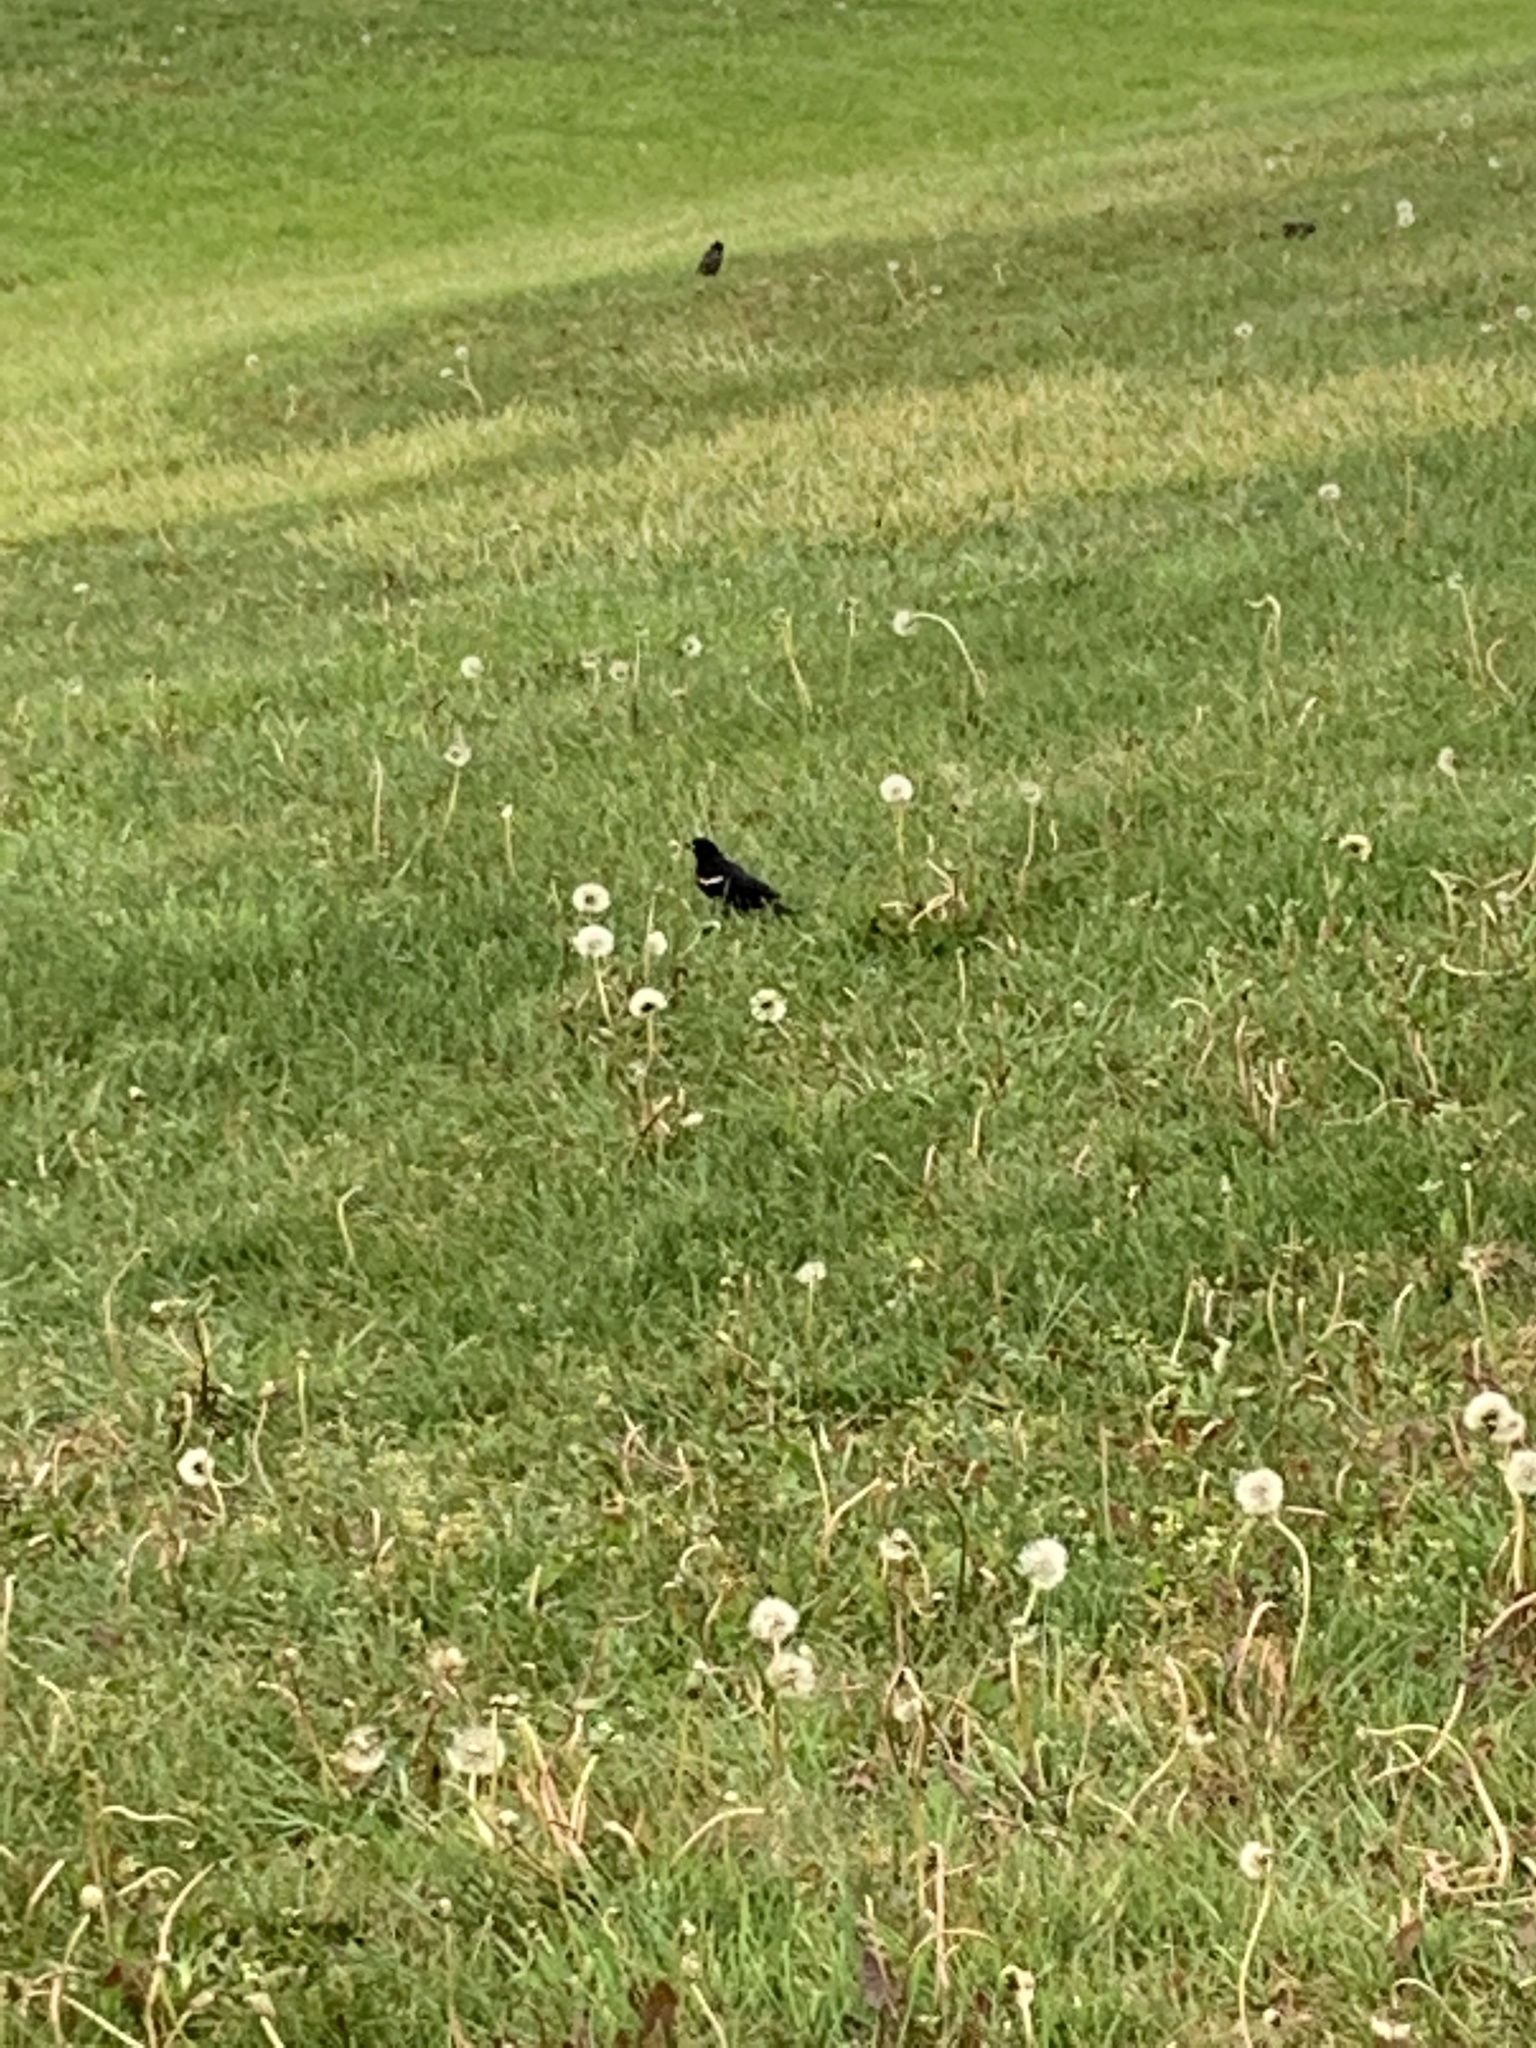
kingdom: Animalia
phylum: Chordata
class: Aves
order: Passeriformes
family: Icteridae
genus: Agelaius
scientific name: Agelaius phoeniceus
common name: Red-winged blackbird
